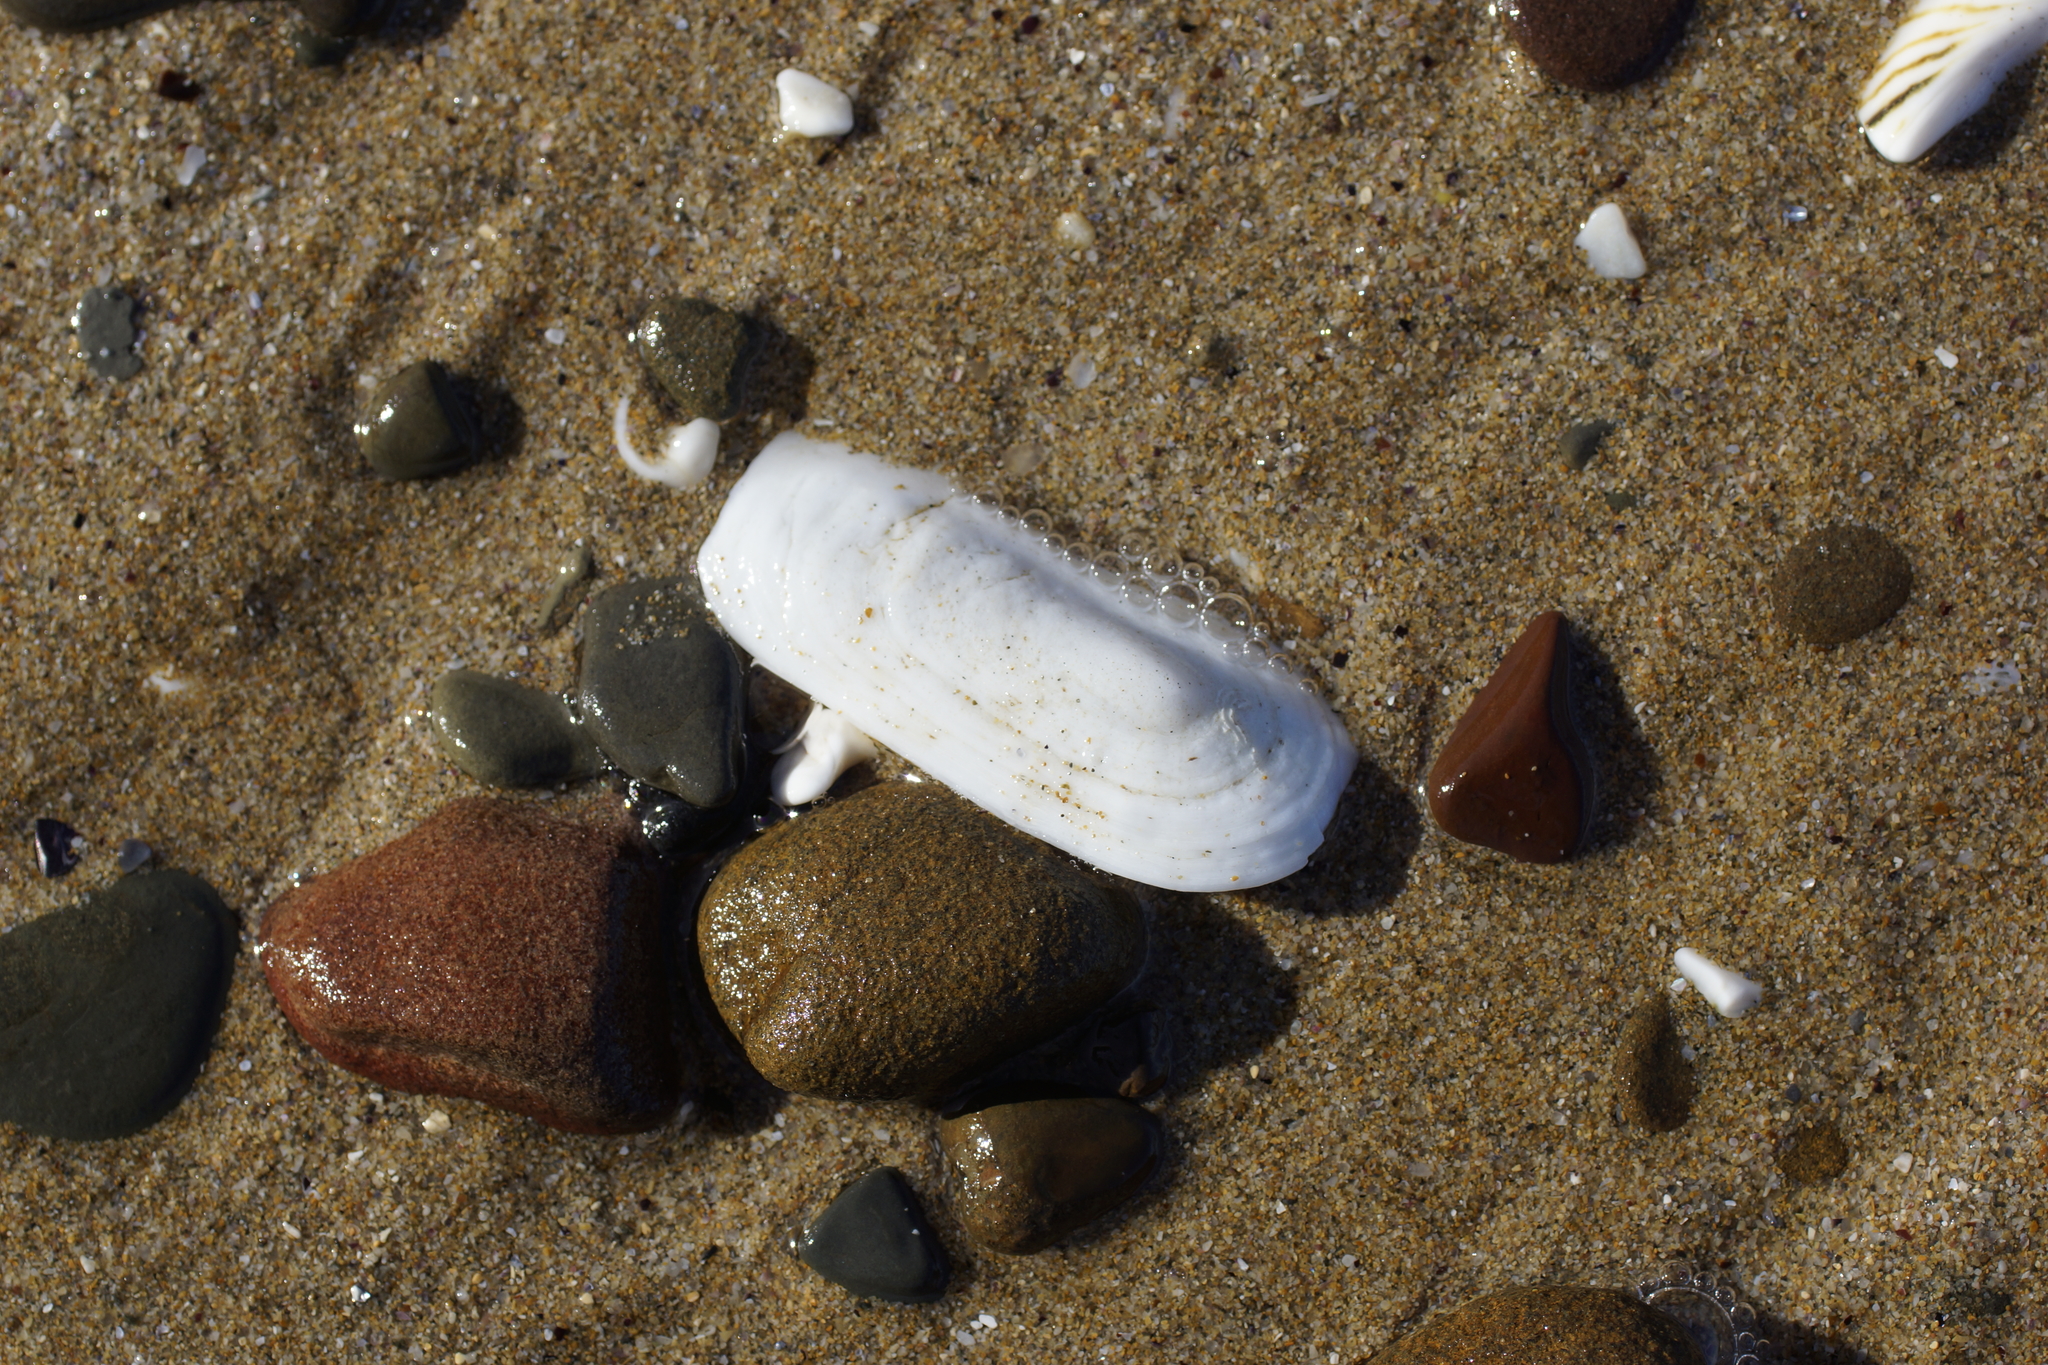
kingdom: Animalia
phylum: Mollusca
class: Gastropoda
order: Lepetellida
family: Fissurellidae
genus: Scutus
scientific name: Scutus antipodes
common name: Duckbill shell
